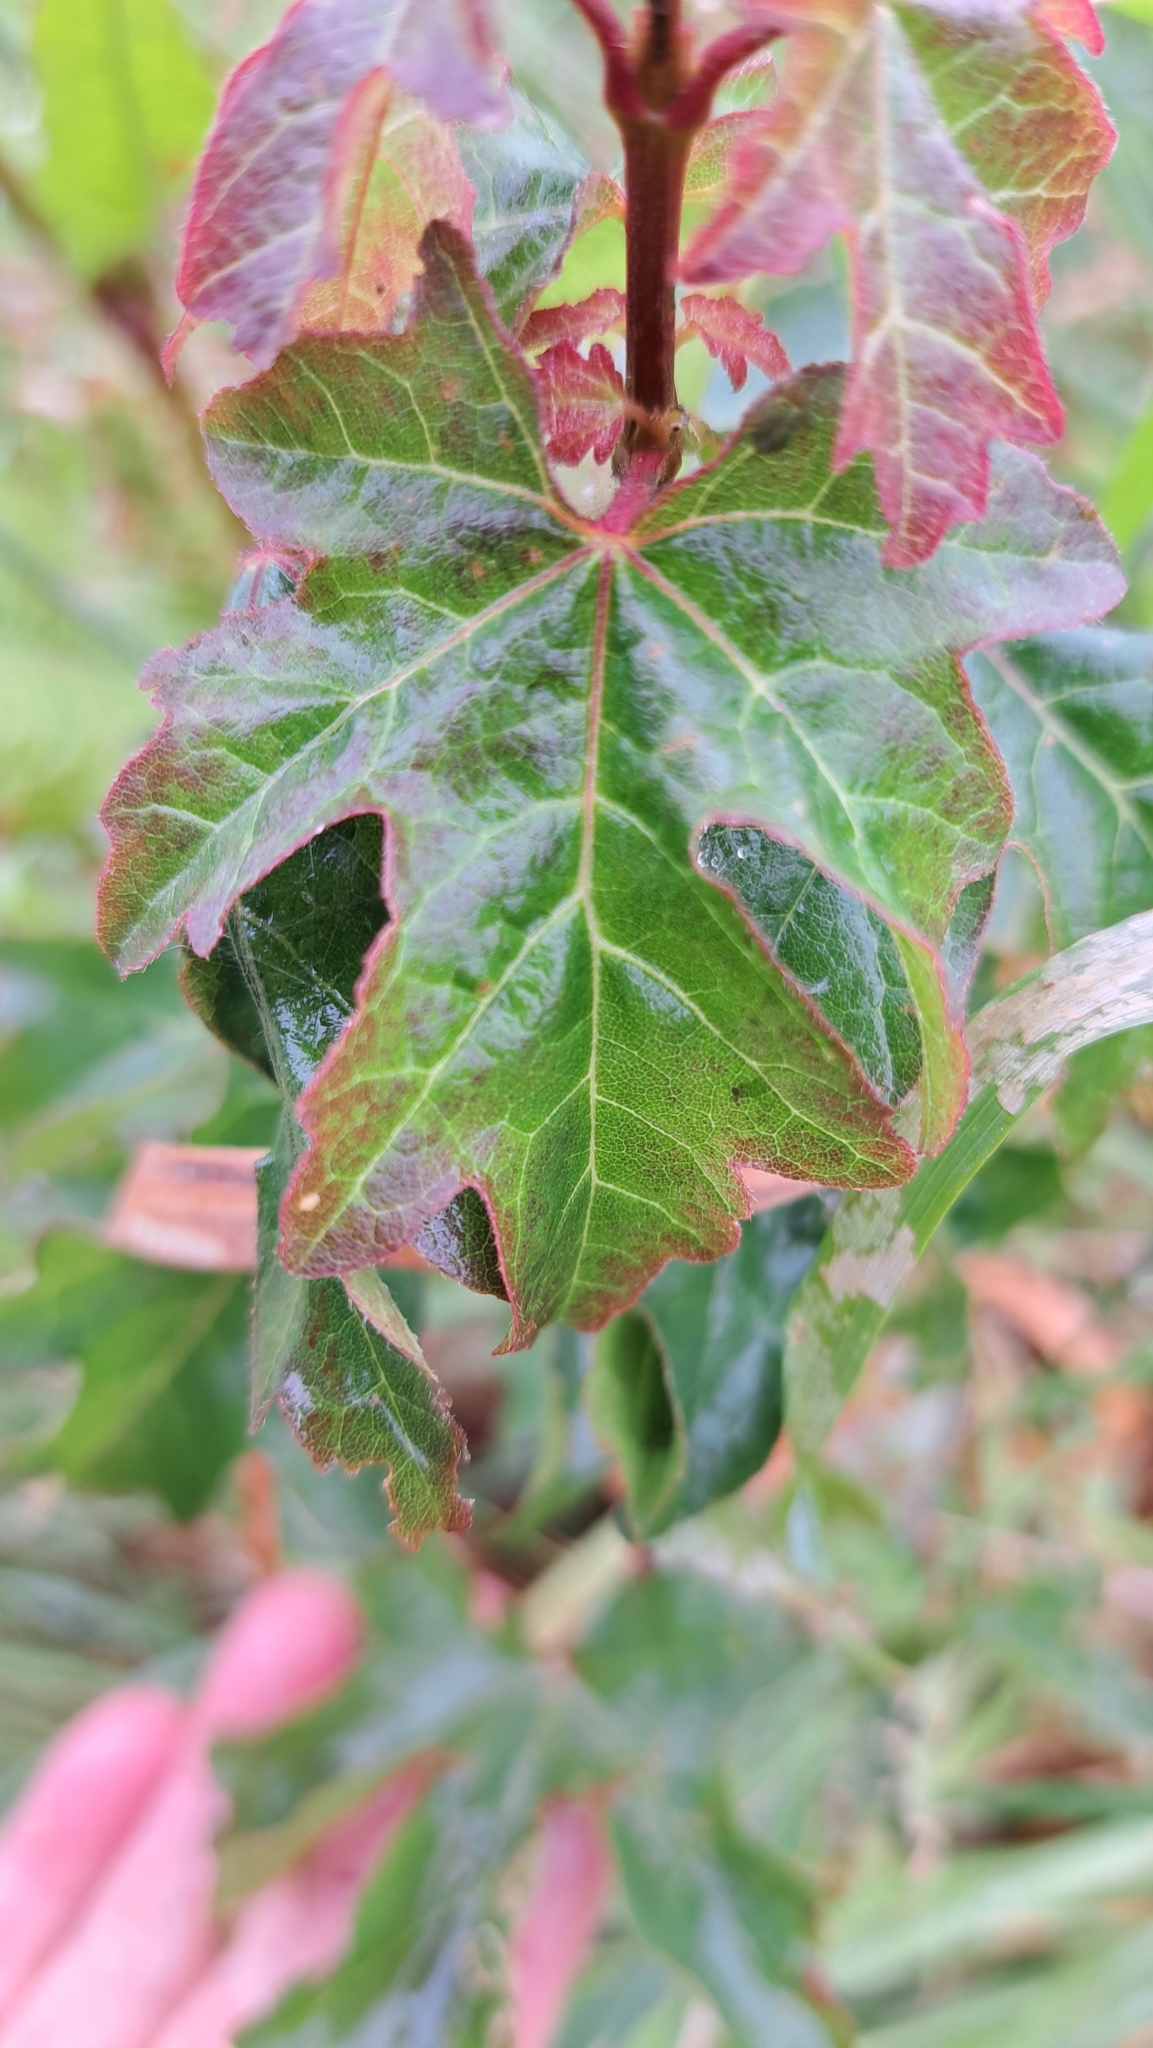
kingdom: Plantae
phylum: Tracheophyta
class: Magnoliopsida
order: Sapindales
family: Sapindaceae
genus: Acer
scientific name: Acer campestre
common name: Field maple
